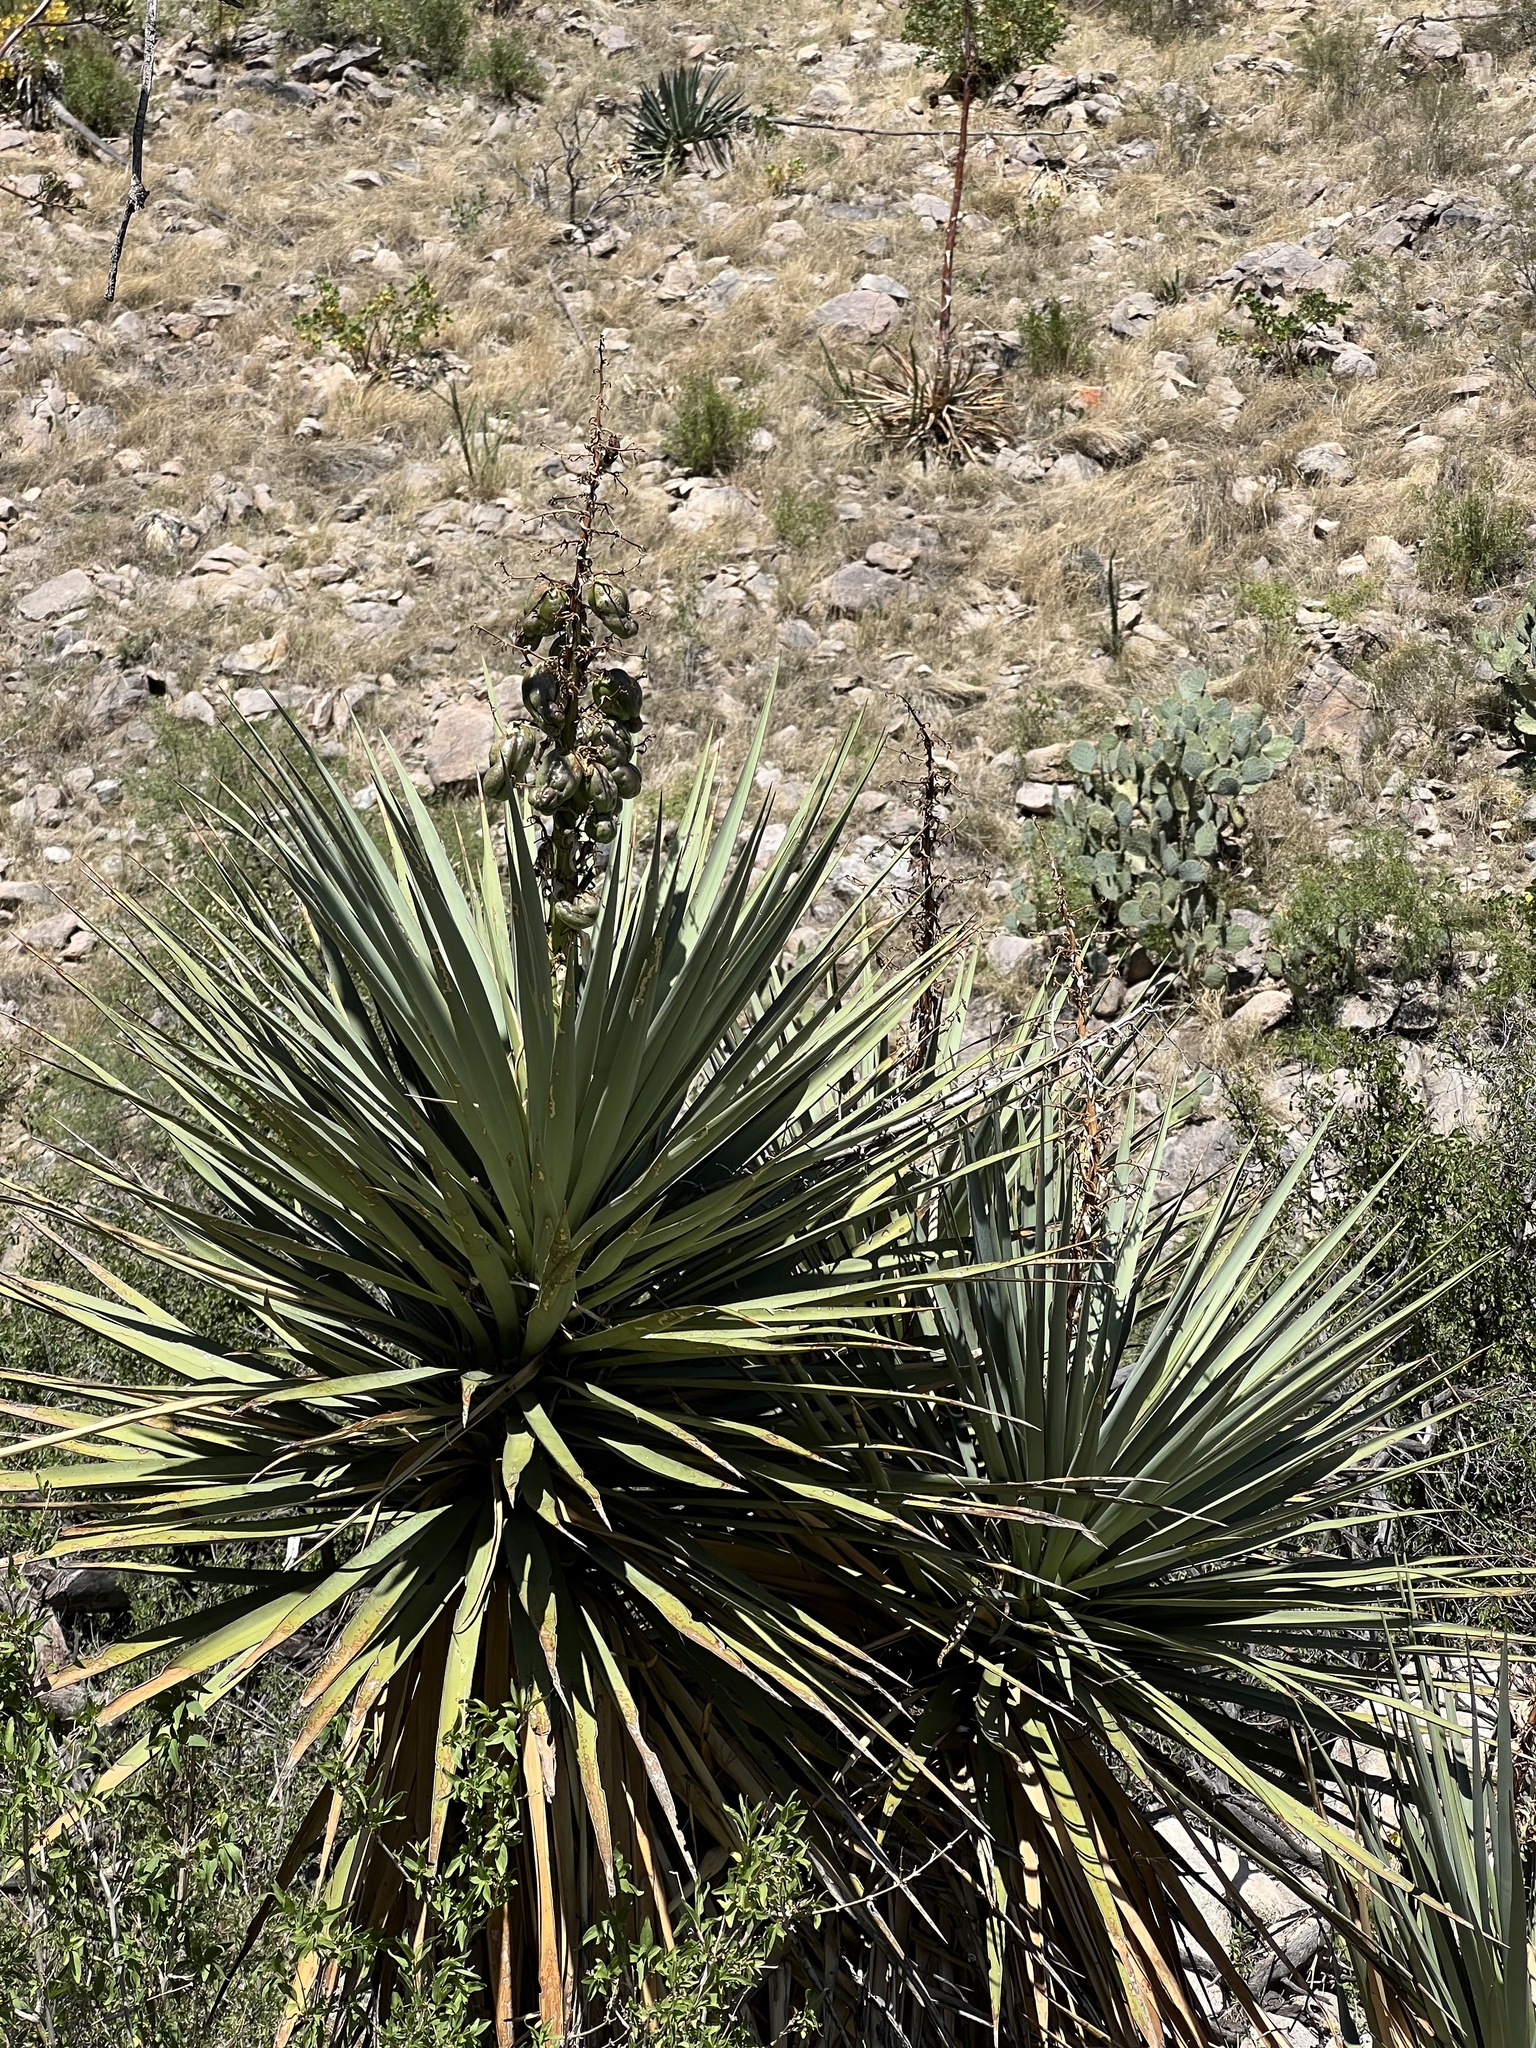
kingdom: Plantae
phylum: Tracheophyta
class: Liliopsida
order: Asparagales
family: Asparagaceae
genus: Yucca
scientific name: Yucca schottii
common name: Hoary yucca
